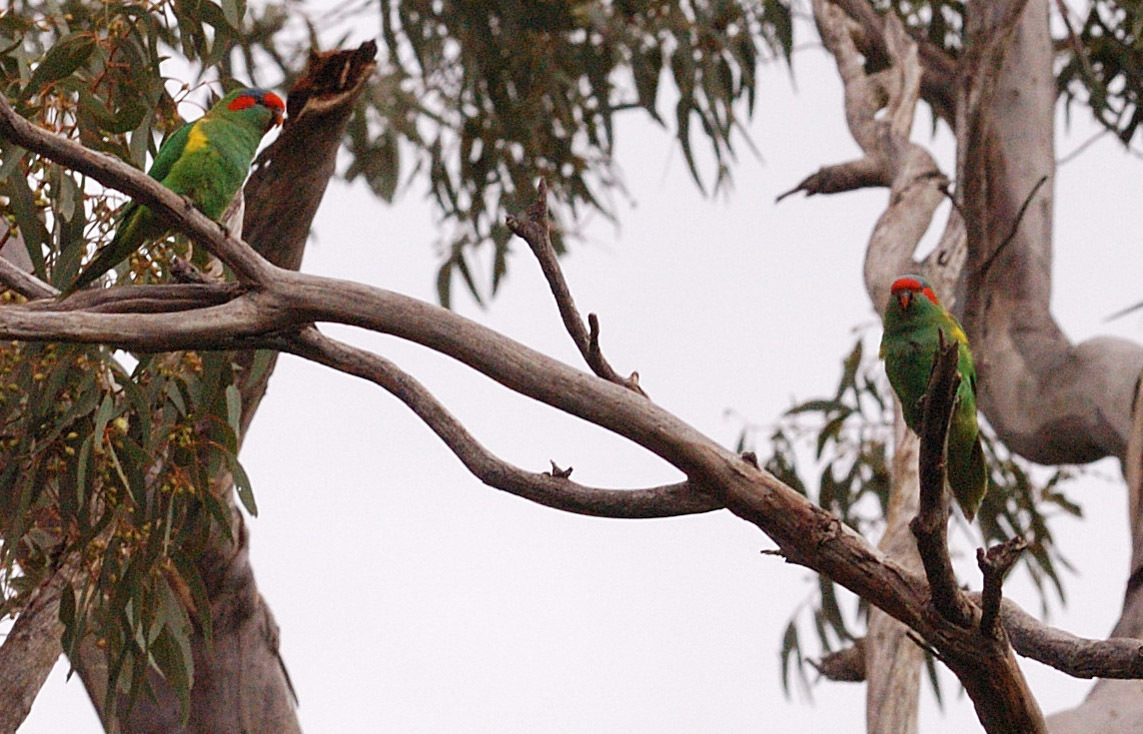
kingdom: Animalia
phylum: Chordata
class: Aves
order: Psittaciformes
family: Psittacidae
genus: Glossopsitta
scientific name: Glossopsitta concinna
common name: Musk lorikeet
